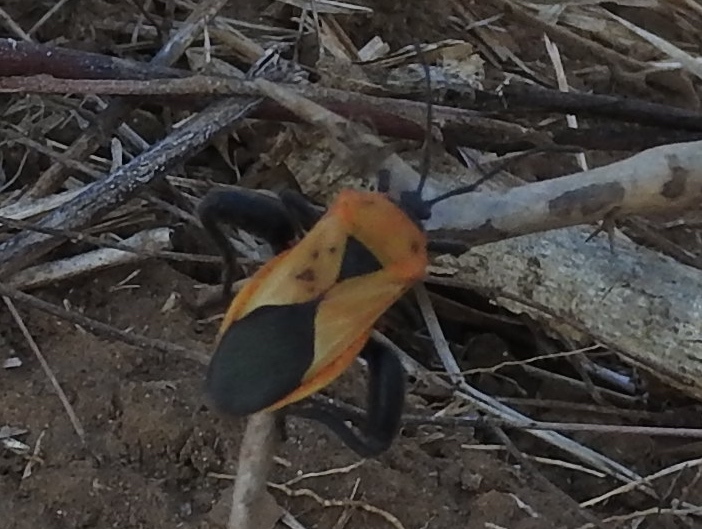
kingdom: Animalia
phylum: Arthropoda
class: Insecta
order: Hemiptera
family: Coreidae
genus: Sagotylus
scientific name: Sagotylus confluens
